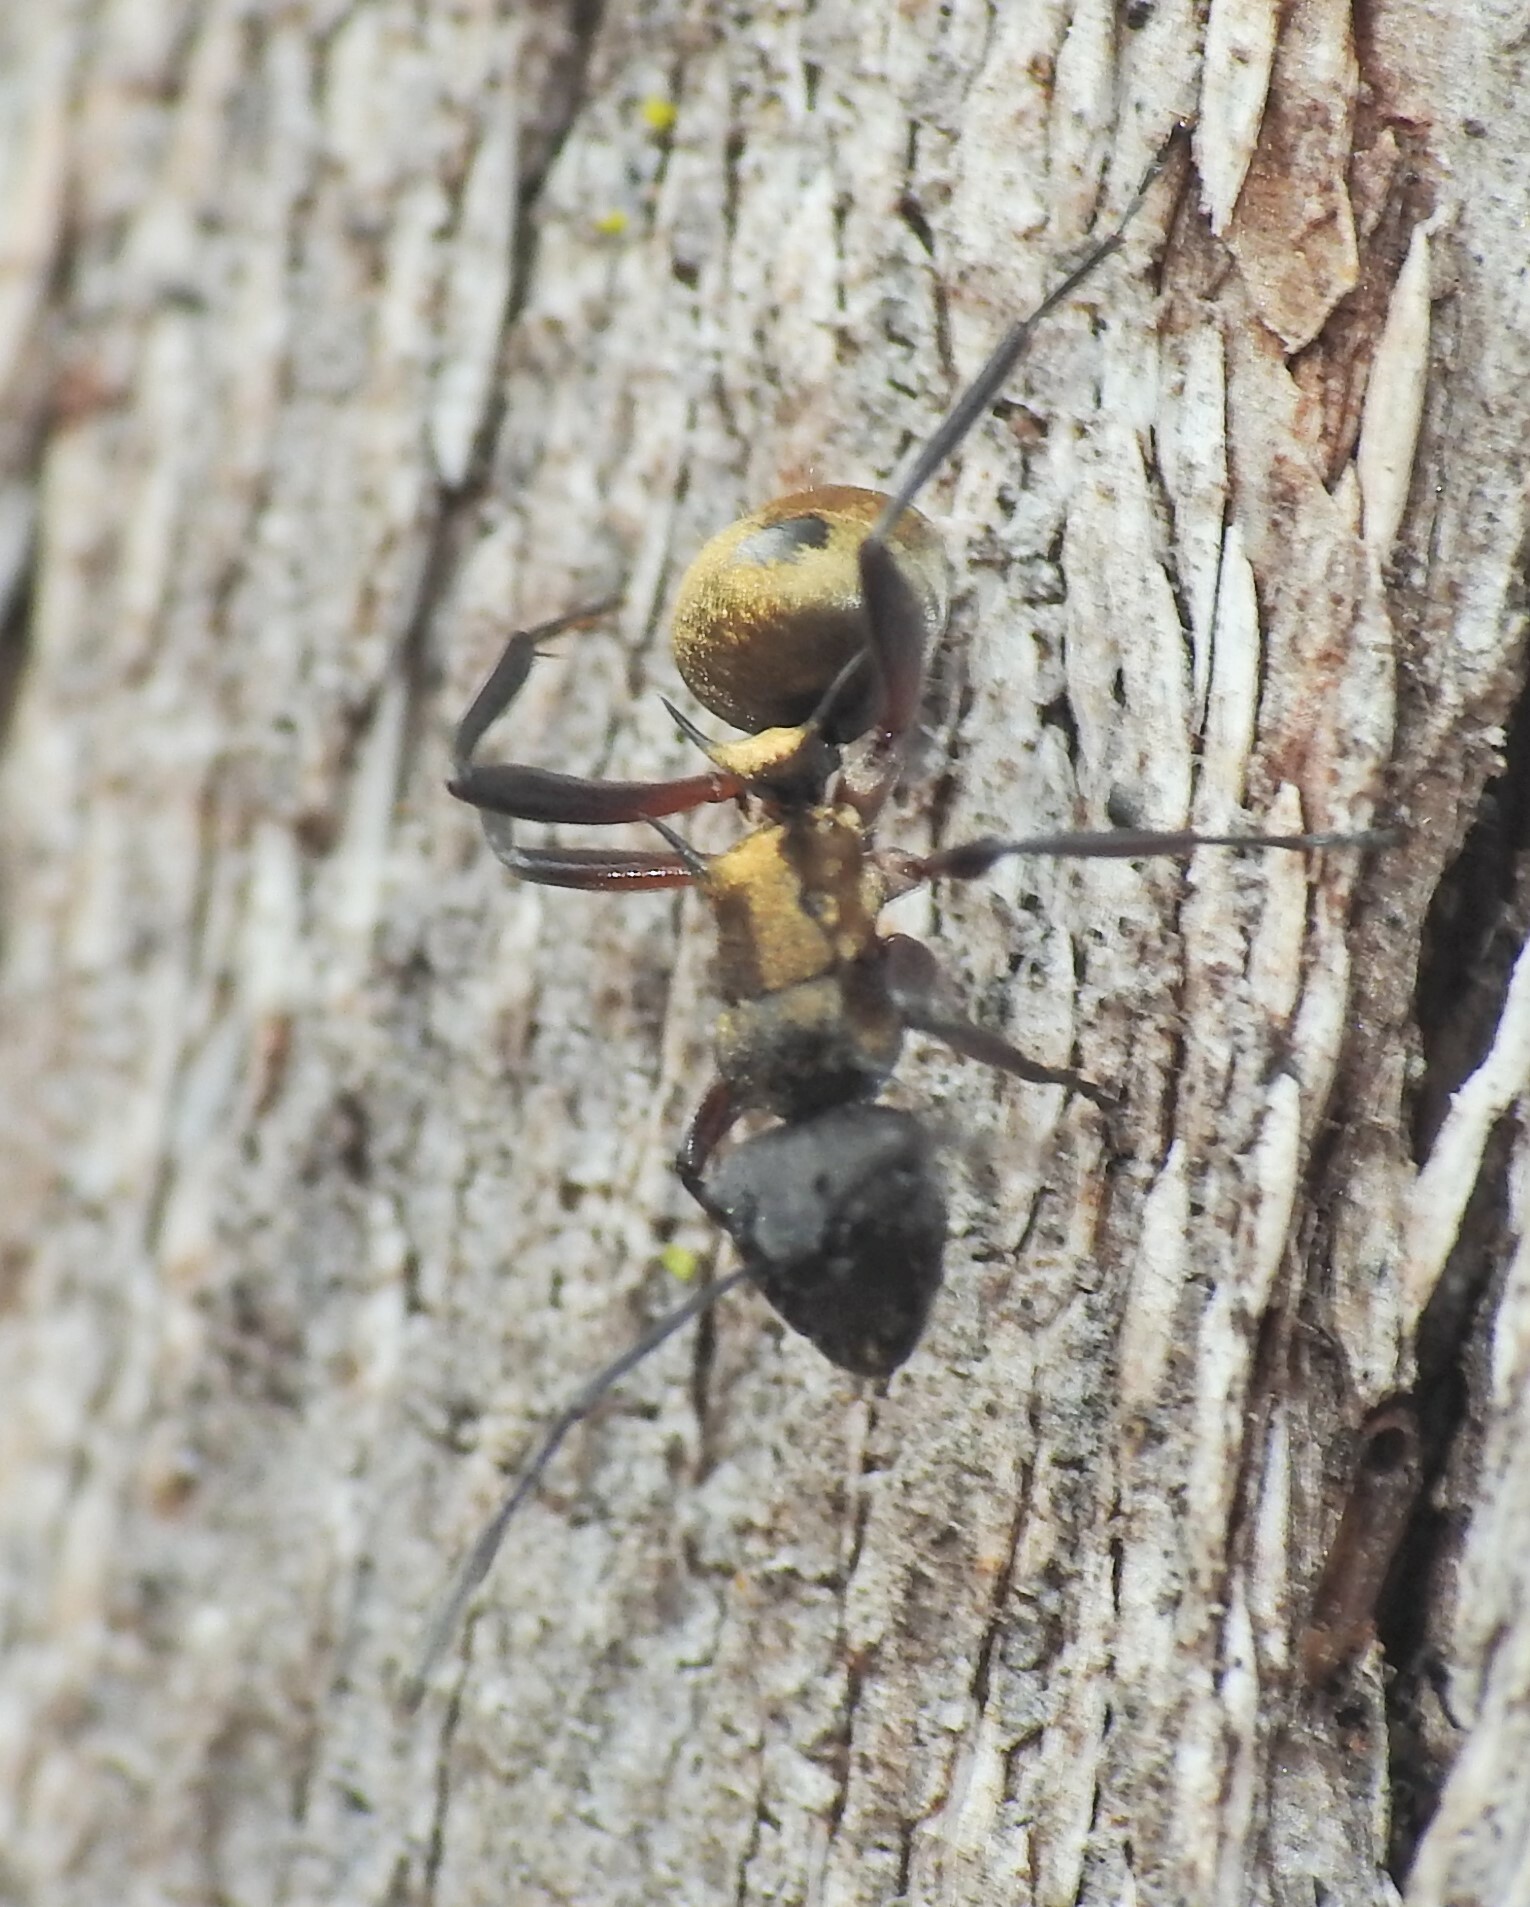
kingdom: Animalia
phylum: Arthropoda
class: Insecta
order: Hymenoptera
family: Formicidae
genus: Polyrhachis
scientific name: Polyrhachis rufifemur
